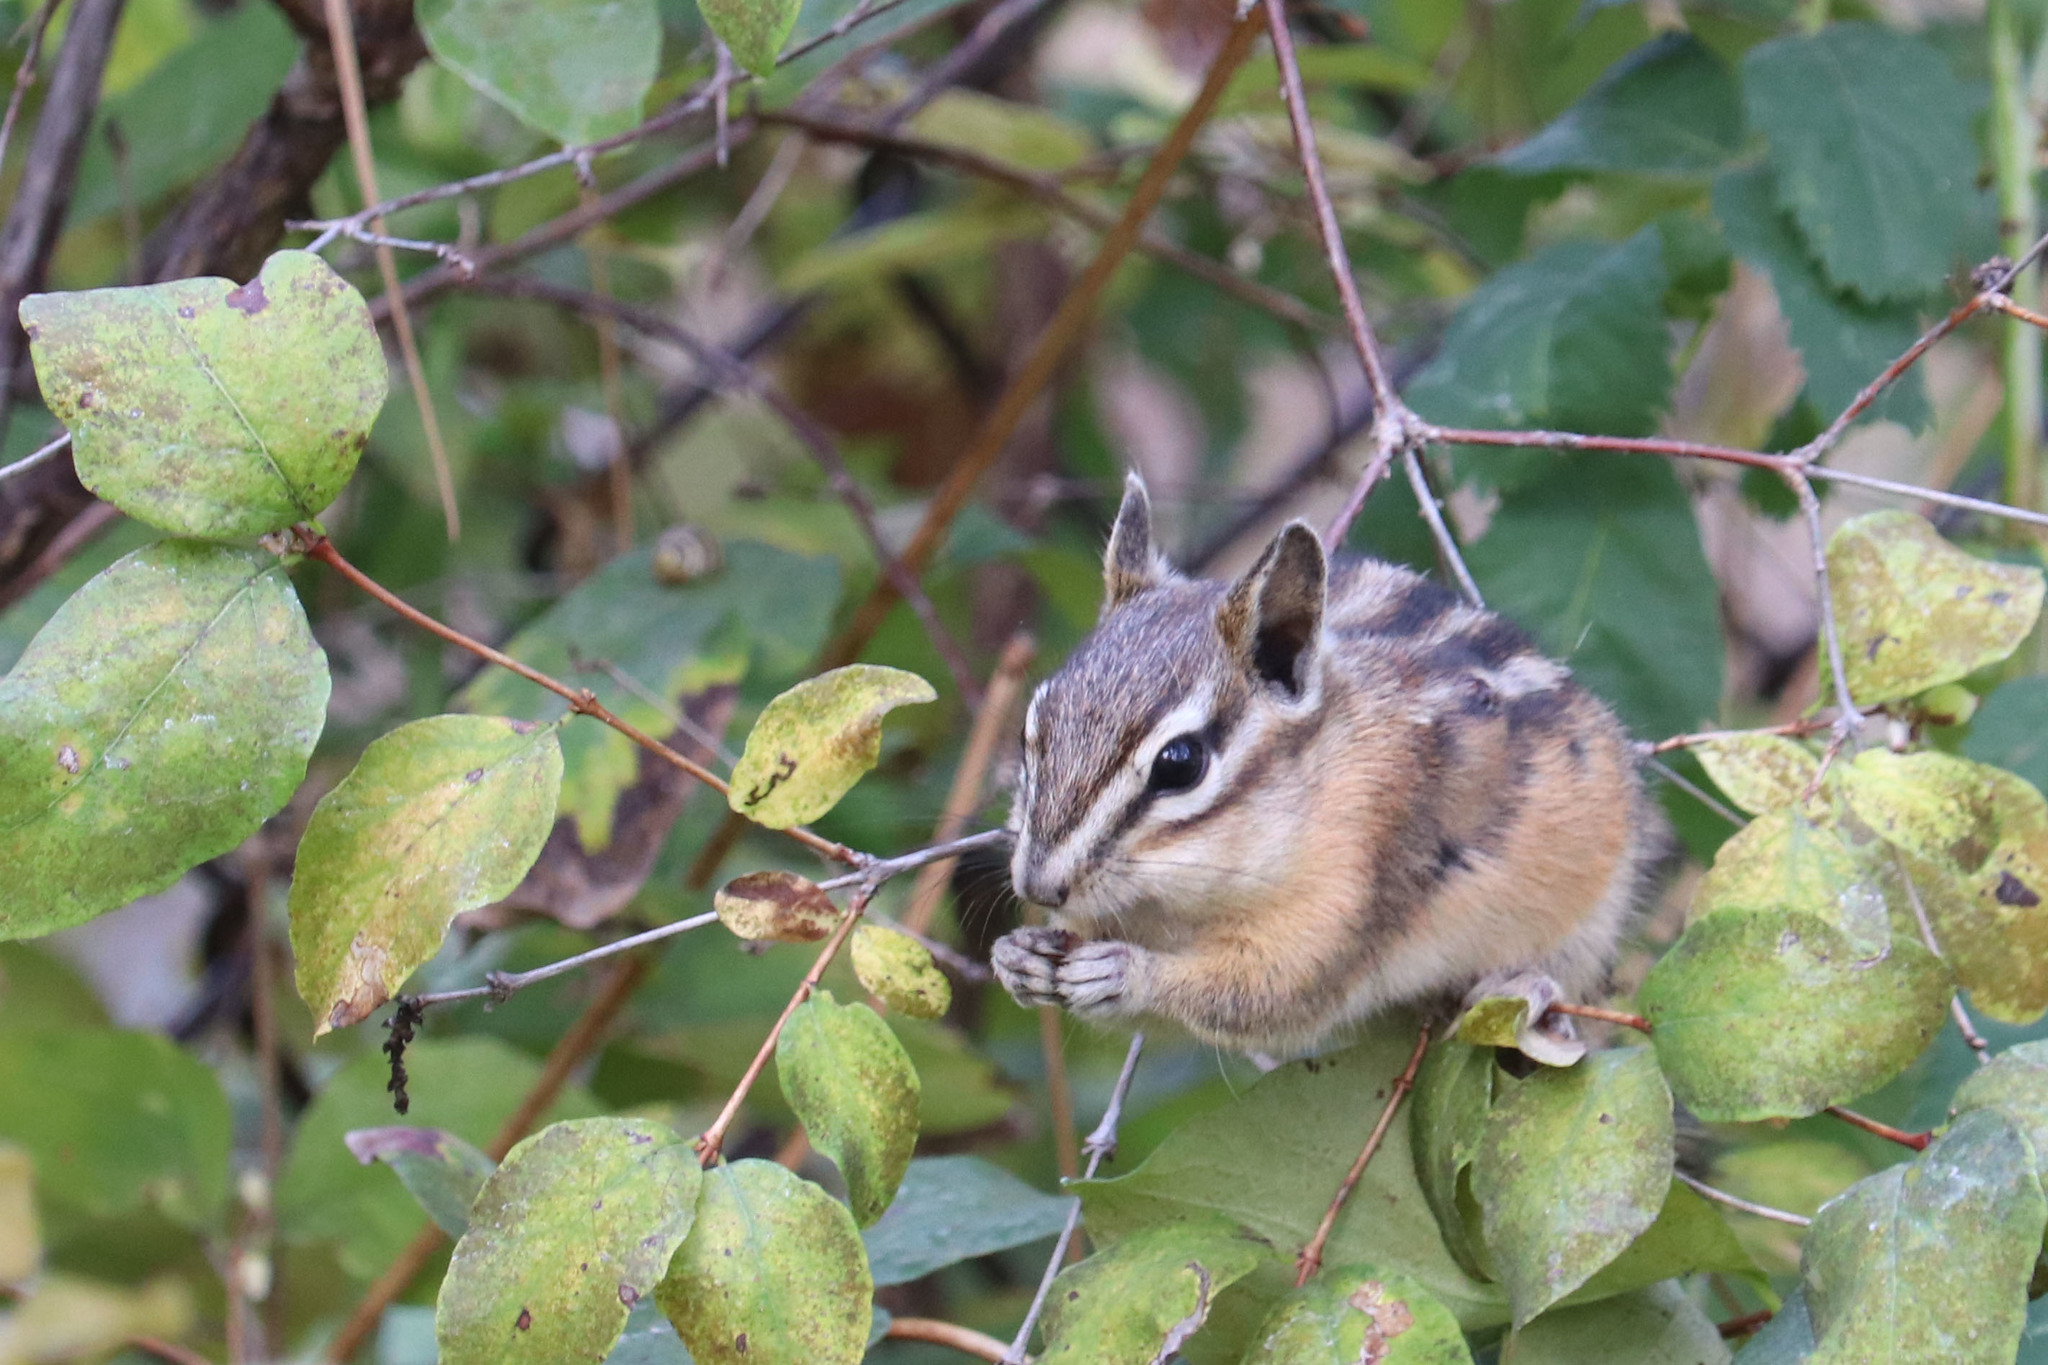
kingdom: Animalia
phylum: Chordata
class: Mammalia
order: Rodentia
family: Sciuridae
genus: Tamias
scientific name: Tamias amoenus
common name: Yellow-pine chipmunk
